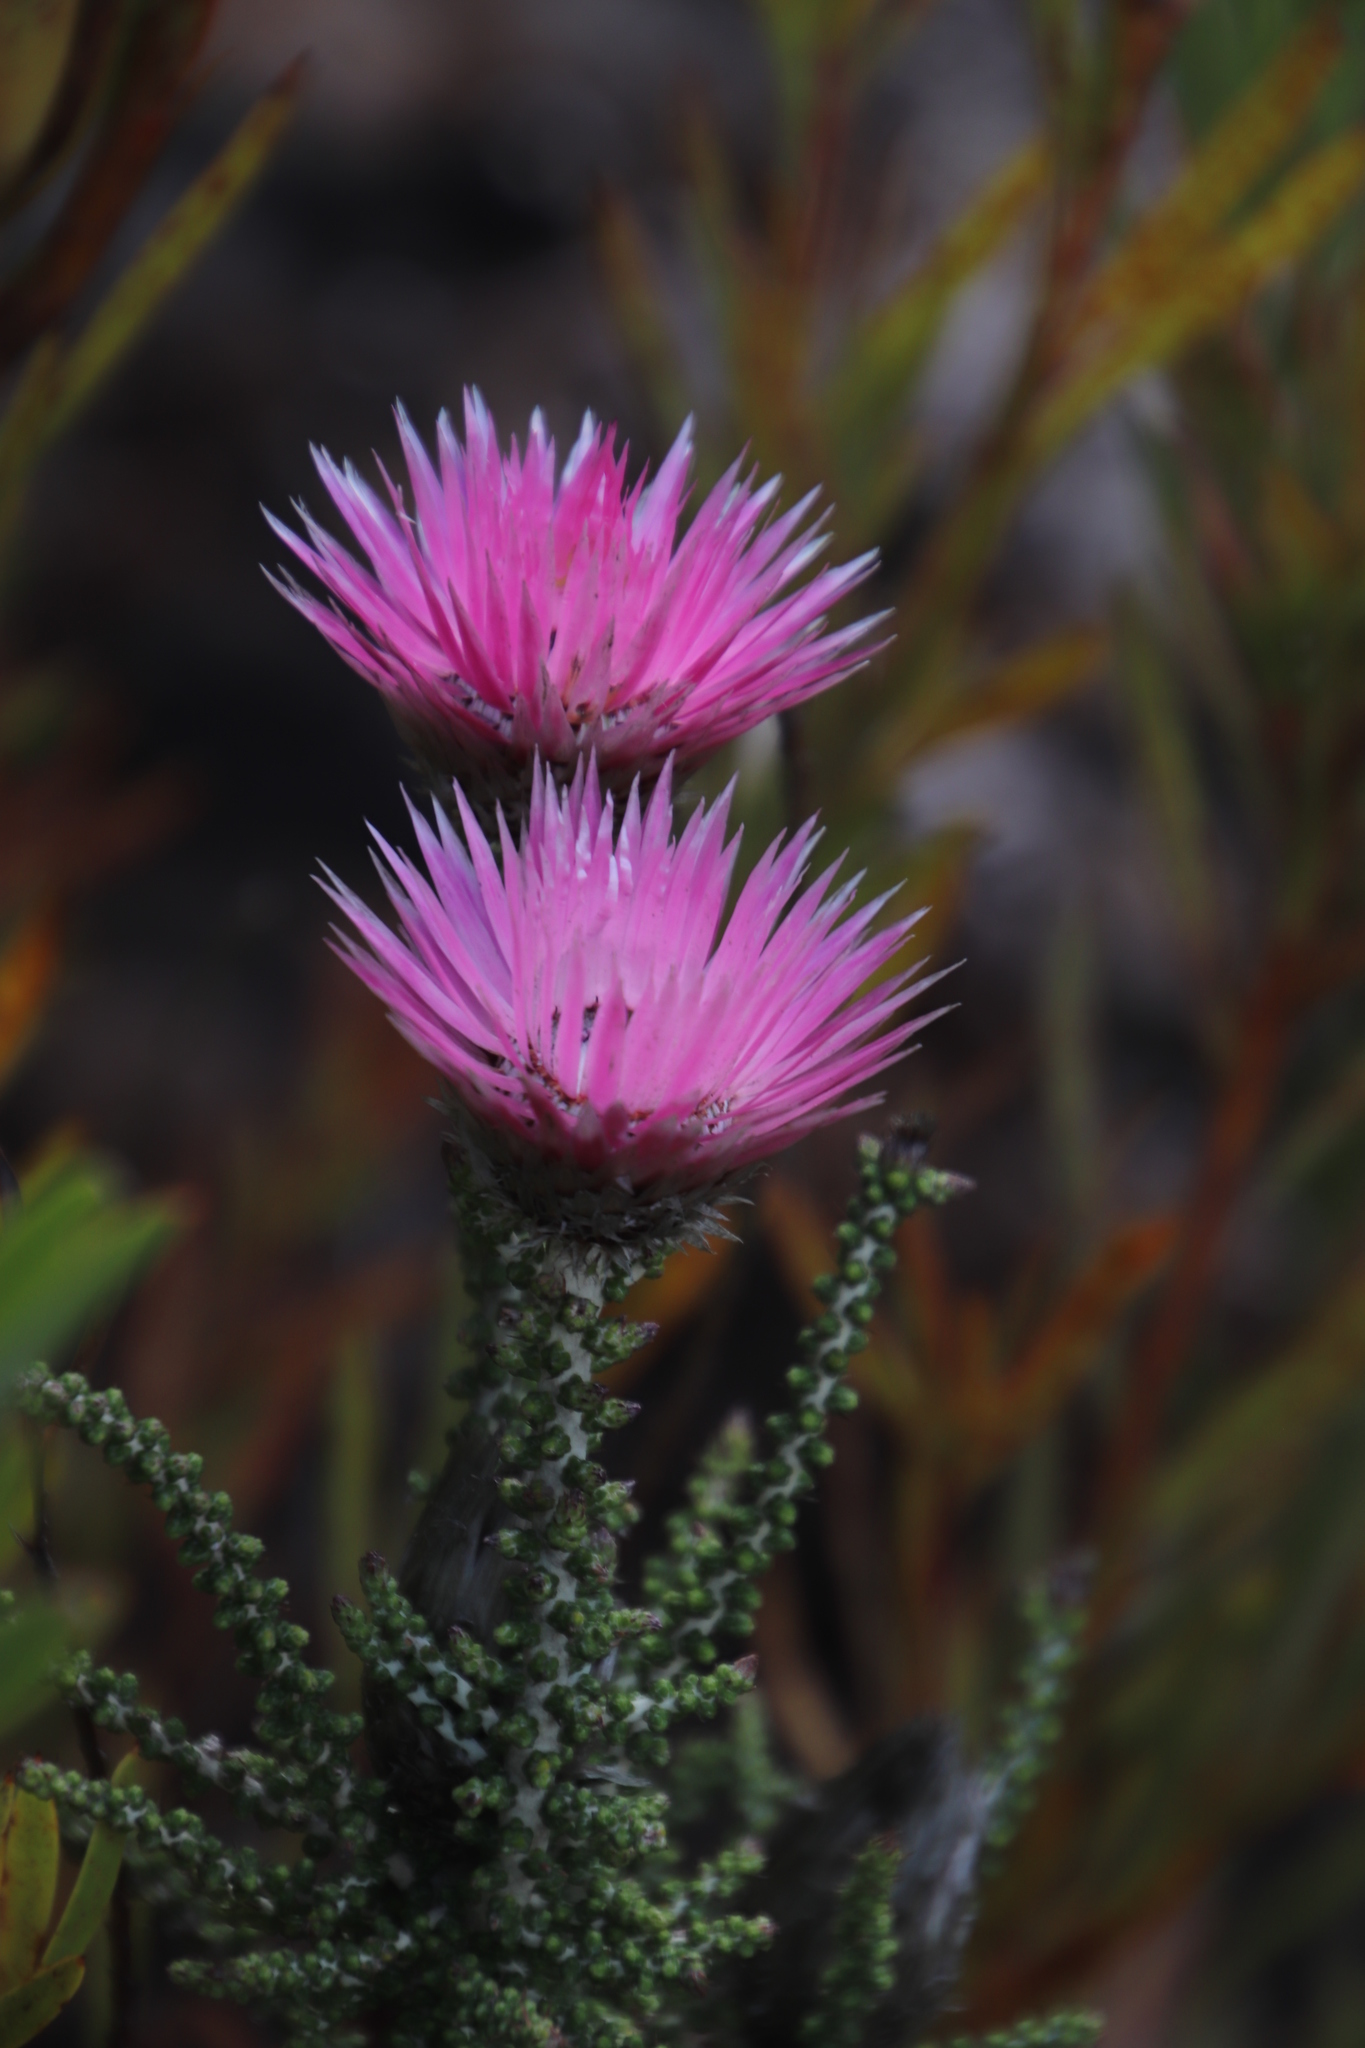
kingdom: Plantae
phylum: Tracheophyta
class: Magnoliopsida
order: Asterales
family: Asteraceae
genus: Phaenocoma
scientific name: Phaenocoma prolifera
